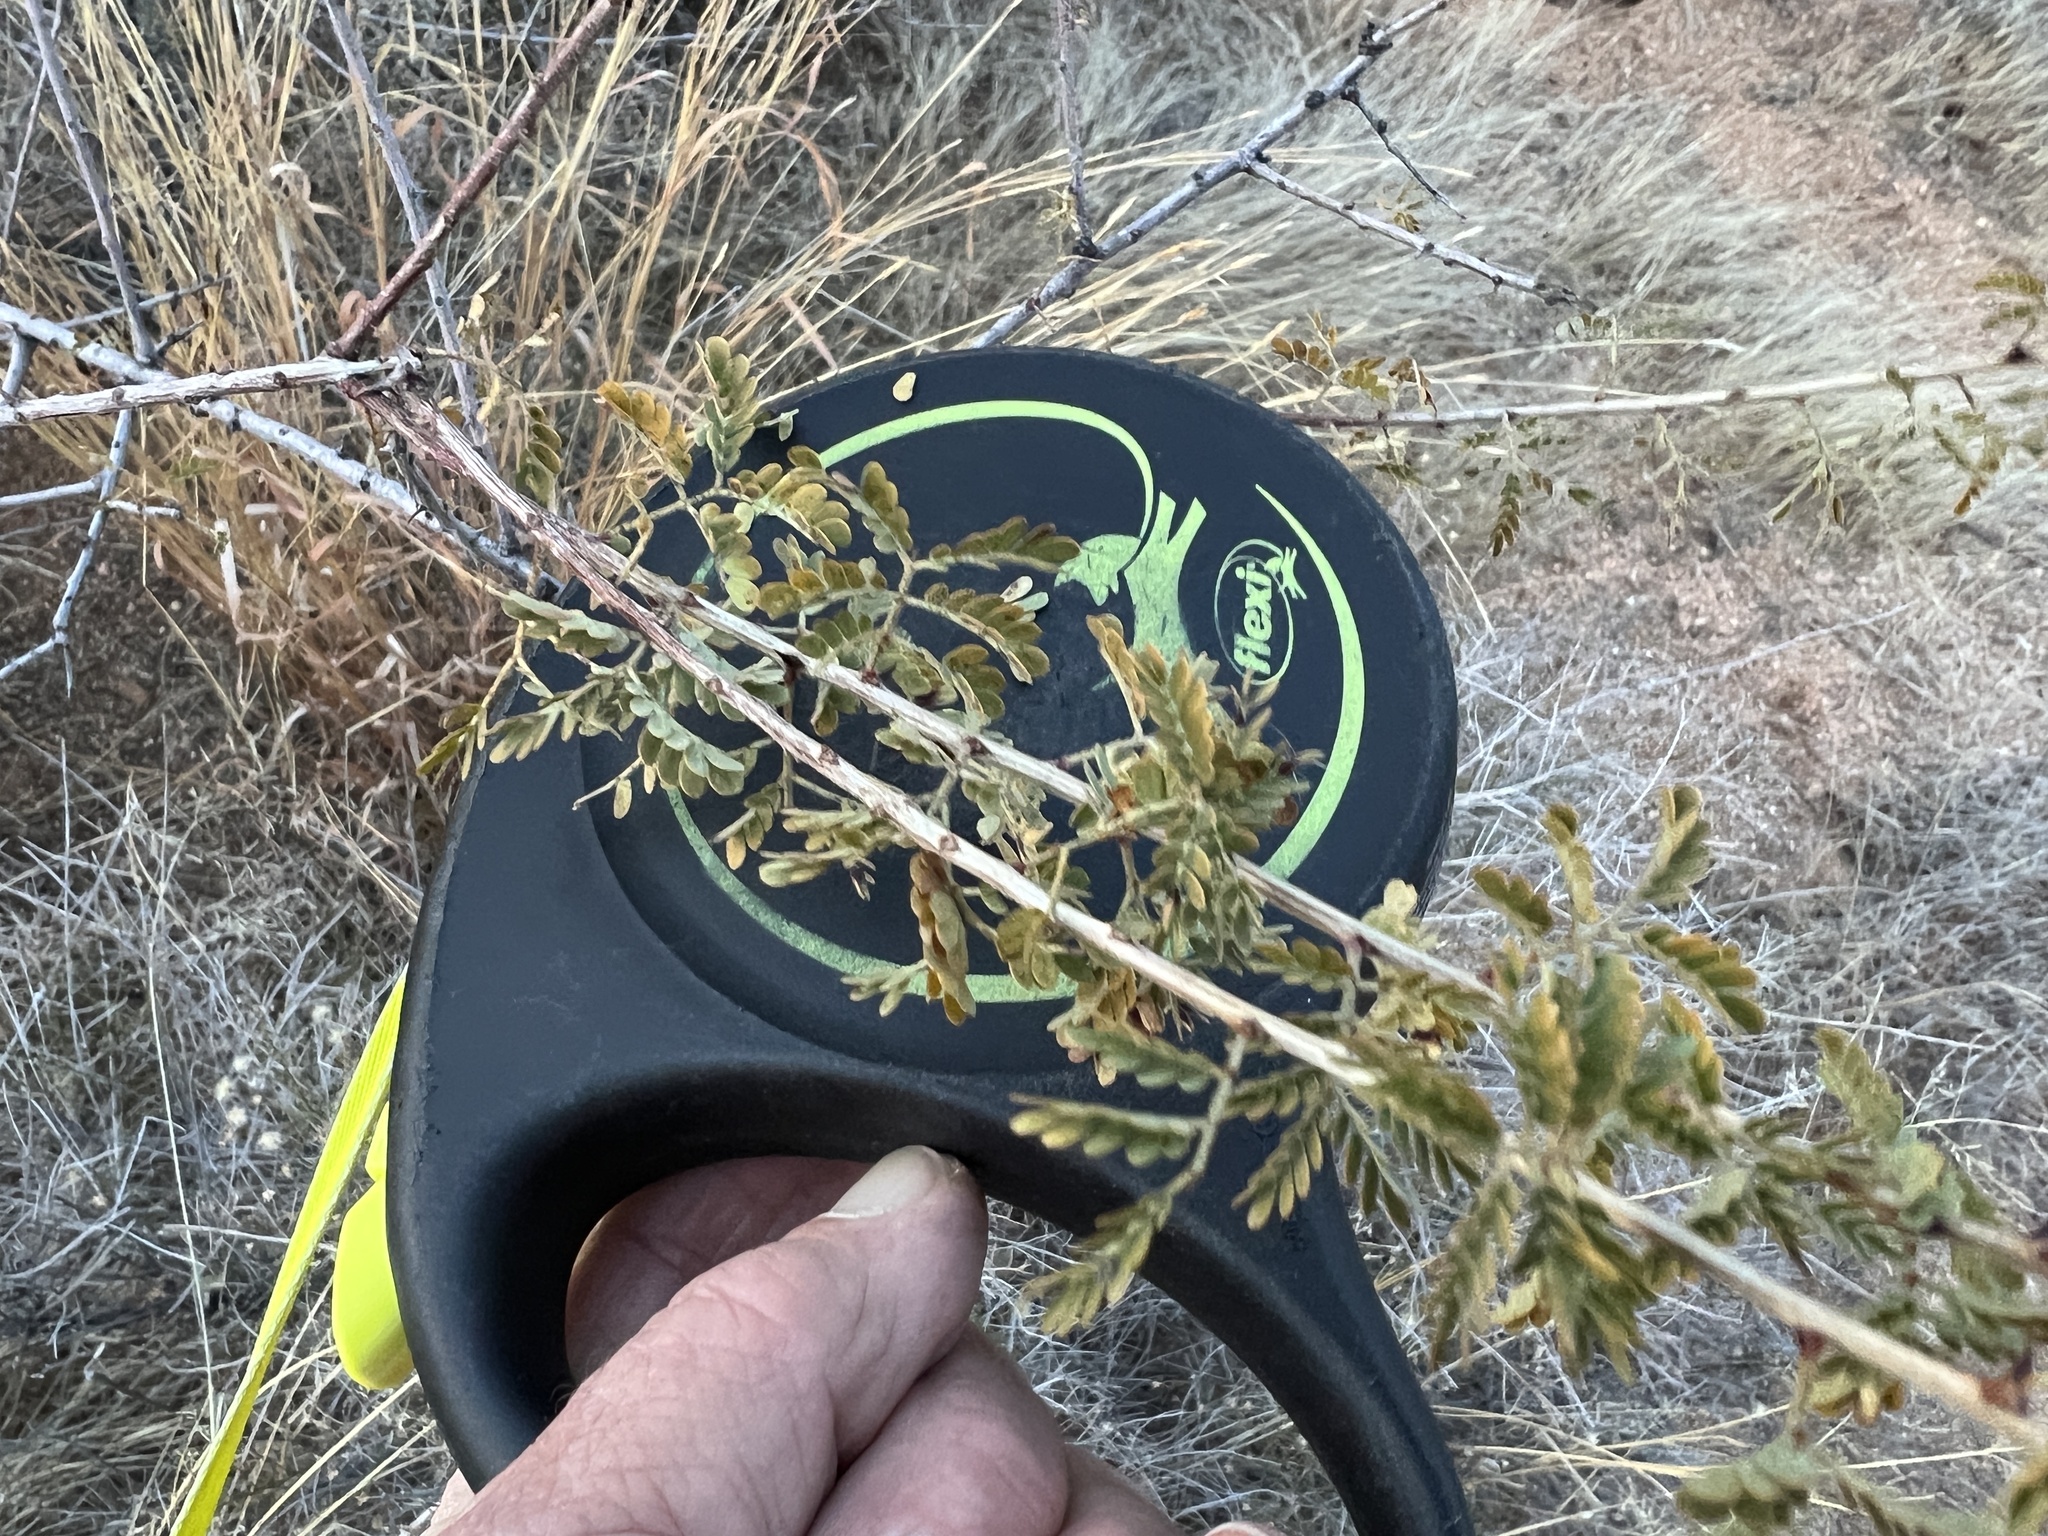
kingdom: Plantae
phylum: Tracheophyta
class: Magnoliopsida
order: Fabales
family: Fabaceae
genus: Senegalia
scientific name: Senegalia greggii
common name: Texas-mimosa
